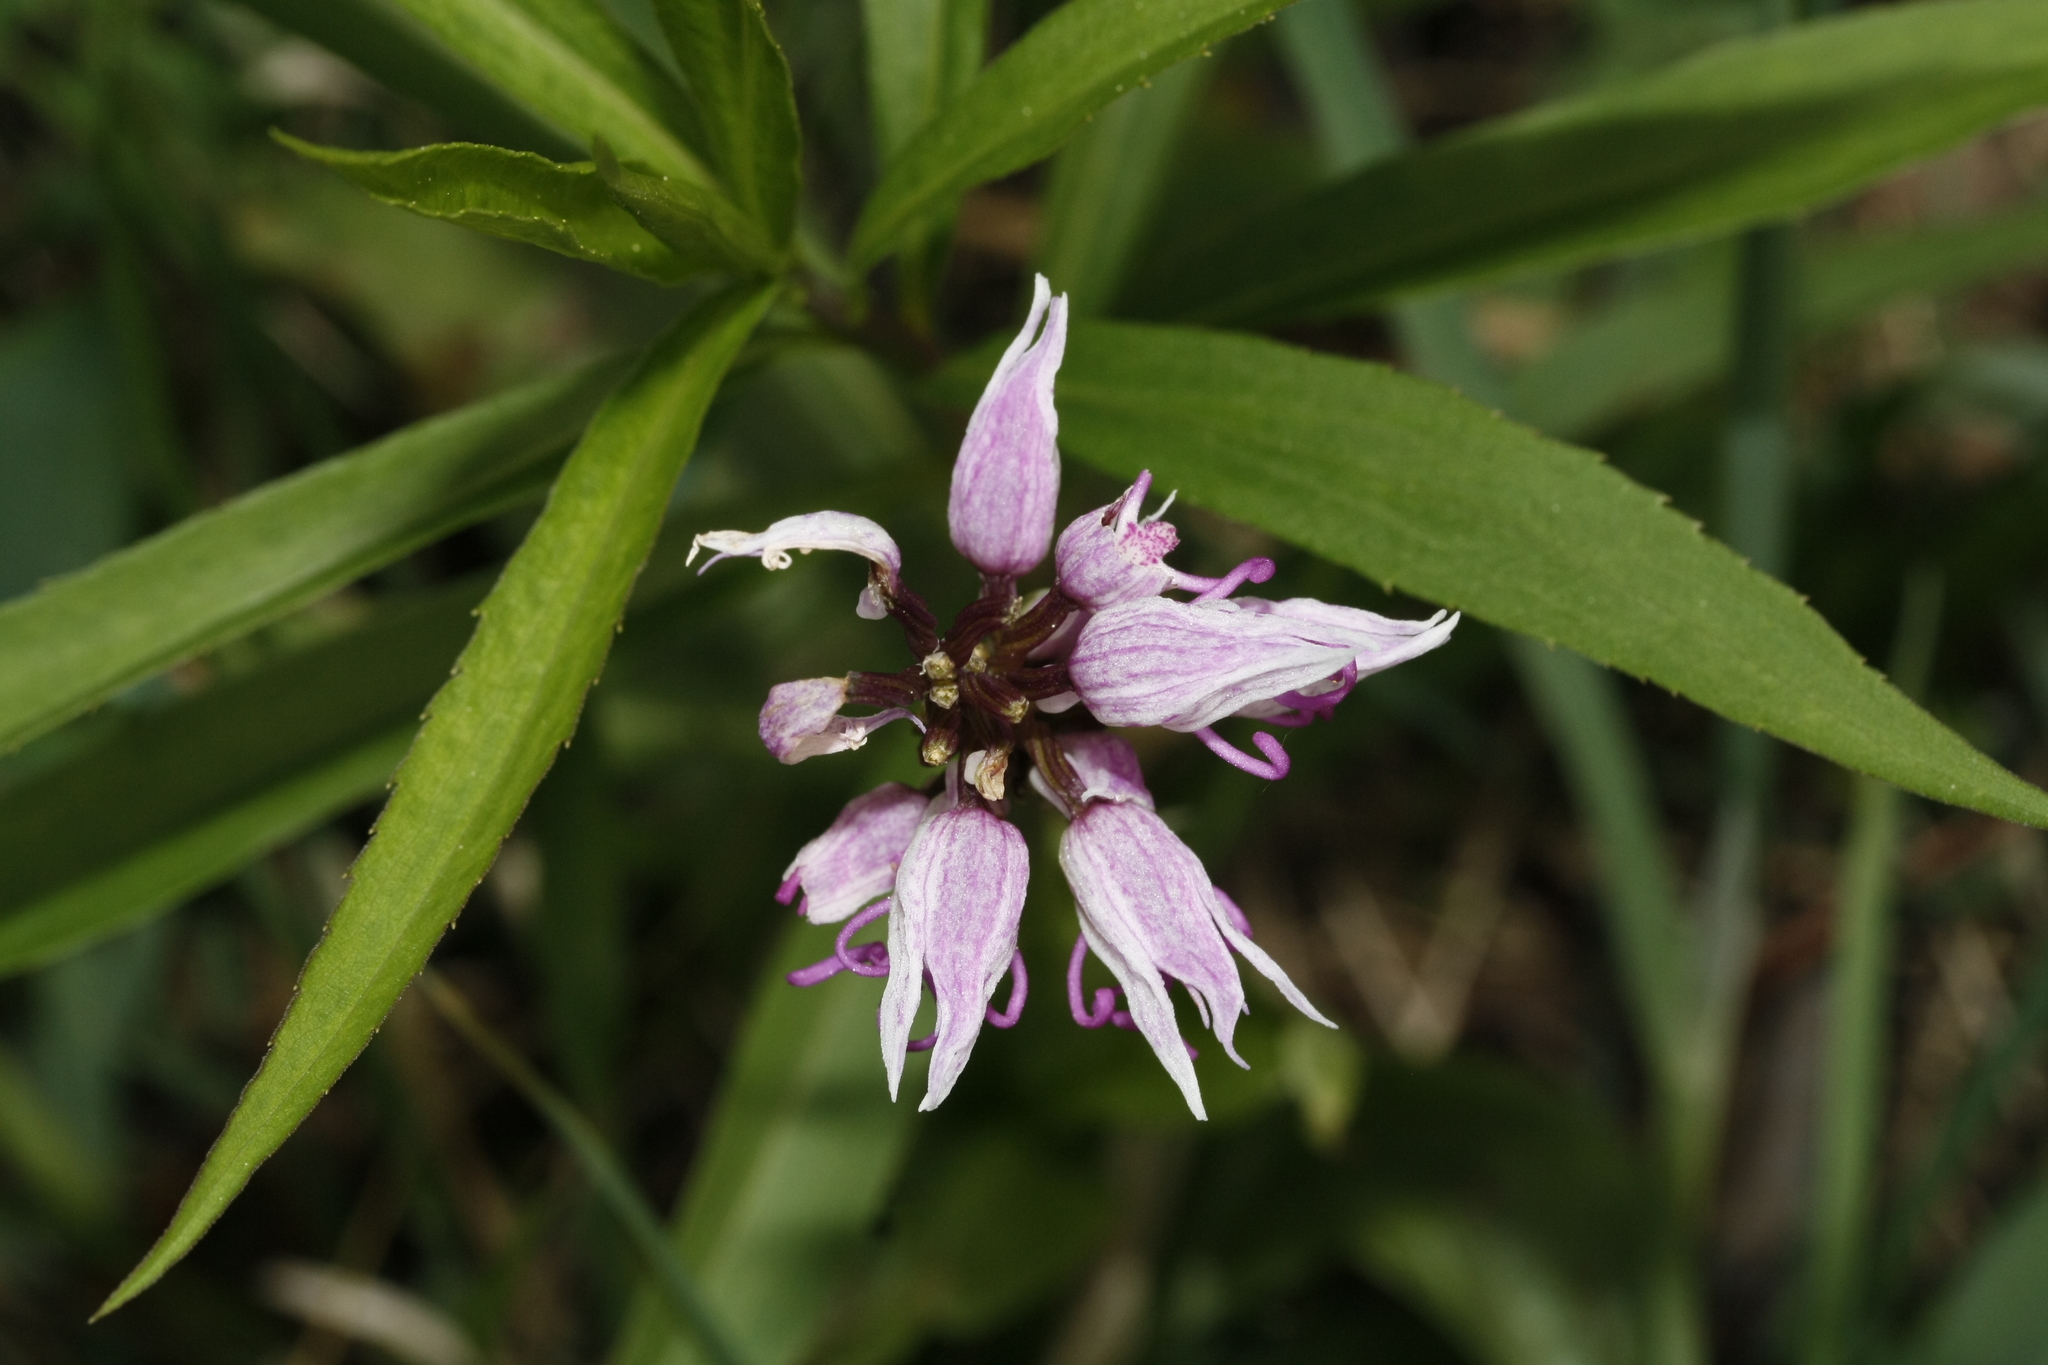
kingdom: Plantae
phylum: Tracheophyta
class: Liliopsida
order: Asparagales
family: Orchidaceae
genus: Orchis
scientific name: Orchis simia
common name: Monkey orchid
